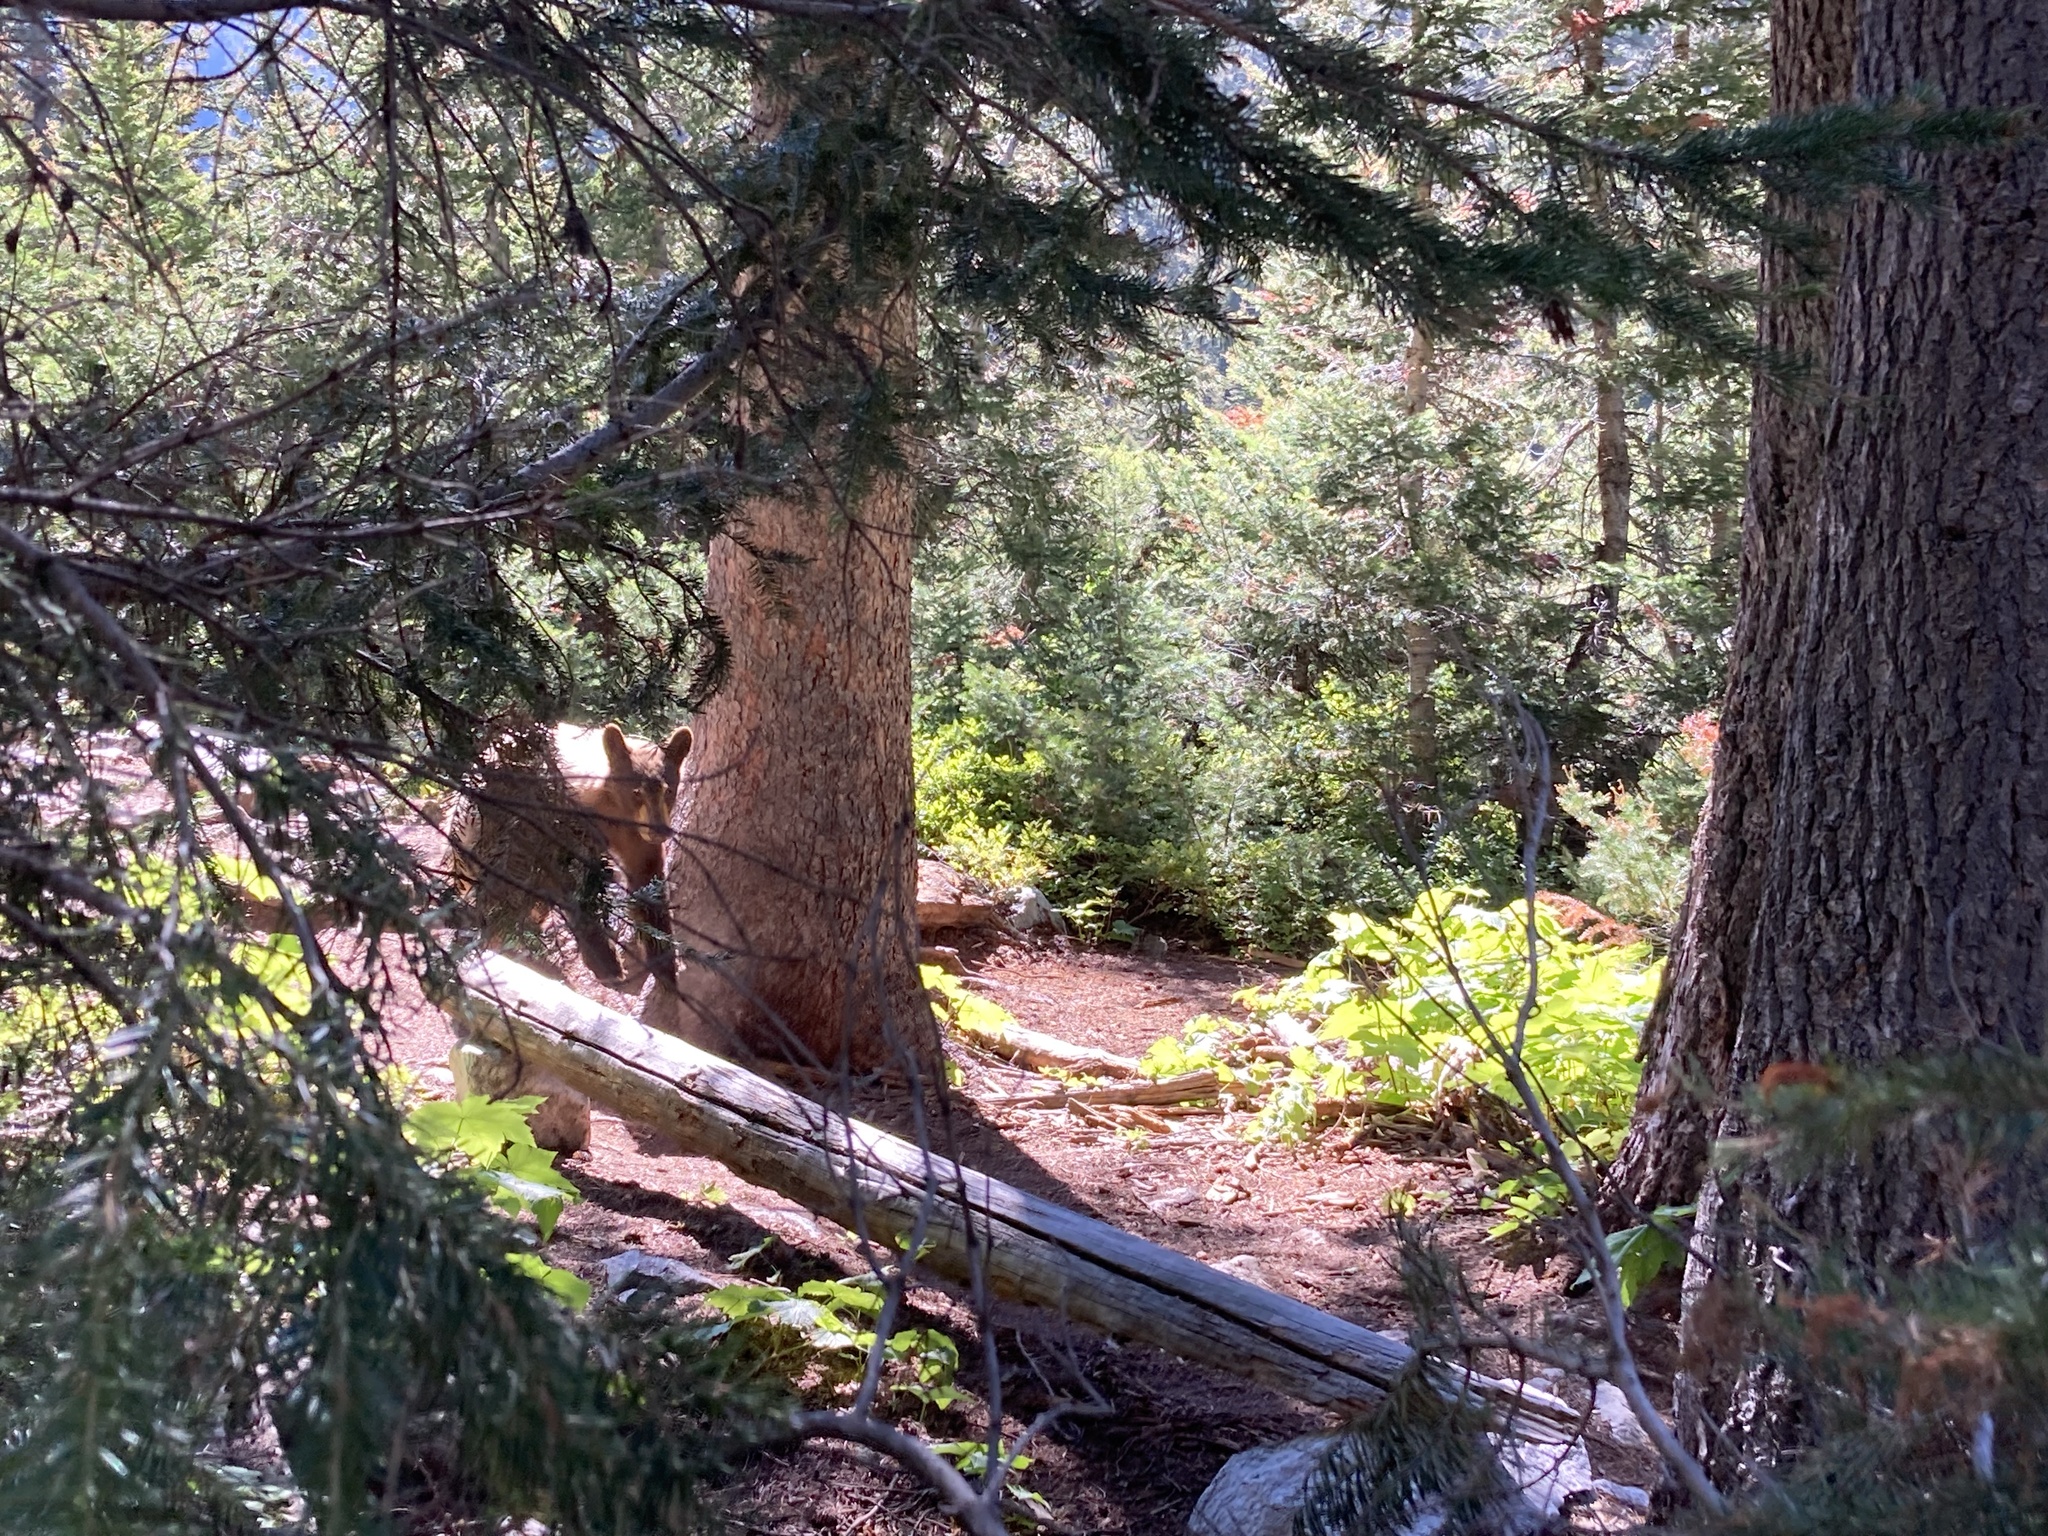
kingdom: Animalia
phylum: Chordata
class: Mammalia
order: Carnivora
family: Ursidae
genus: Ursus
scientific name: Ursus americanus
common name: American black bear
